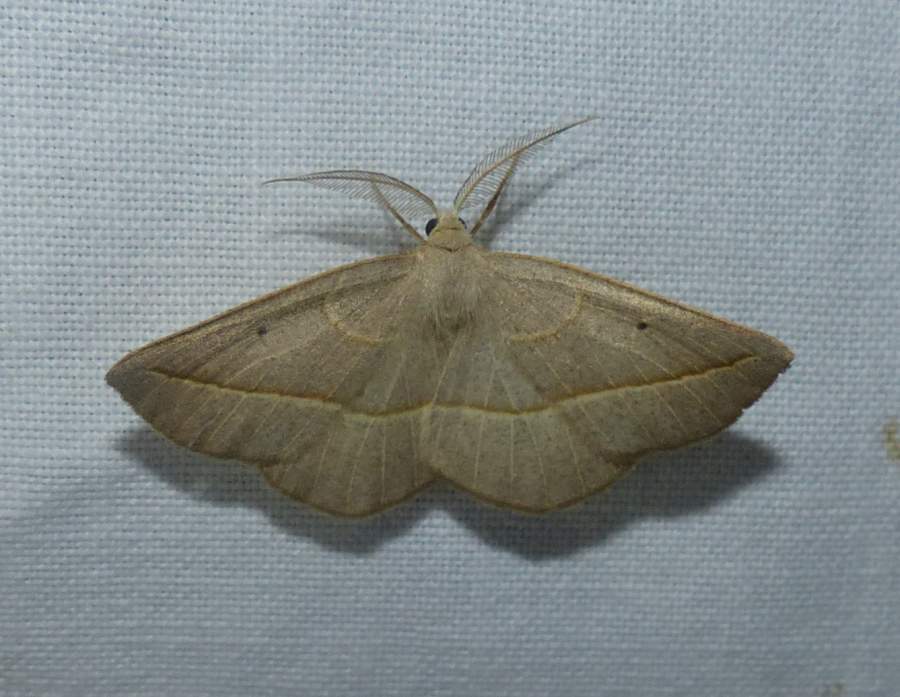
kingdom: Animalia
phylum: Arthropoda
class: Insecta
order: Lepidoptera
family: Geometridae
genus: Eusarca
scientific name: Eusarca confusaria
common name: Confused eusarca
